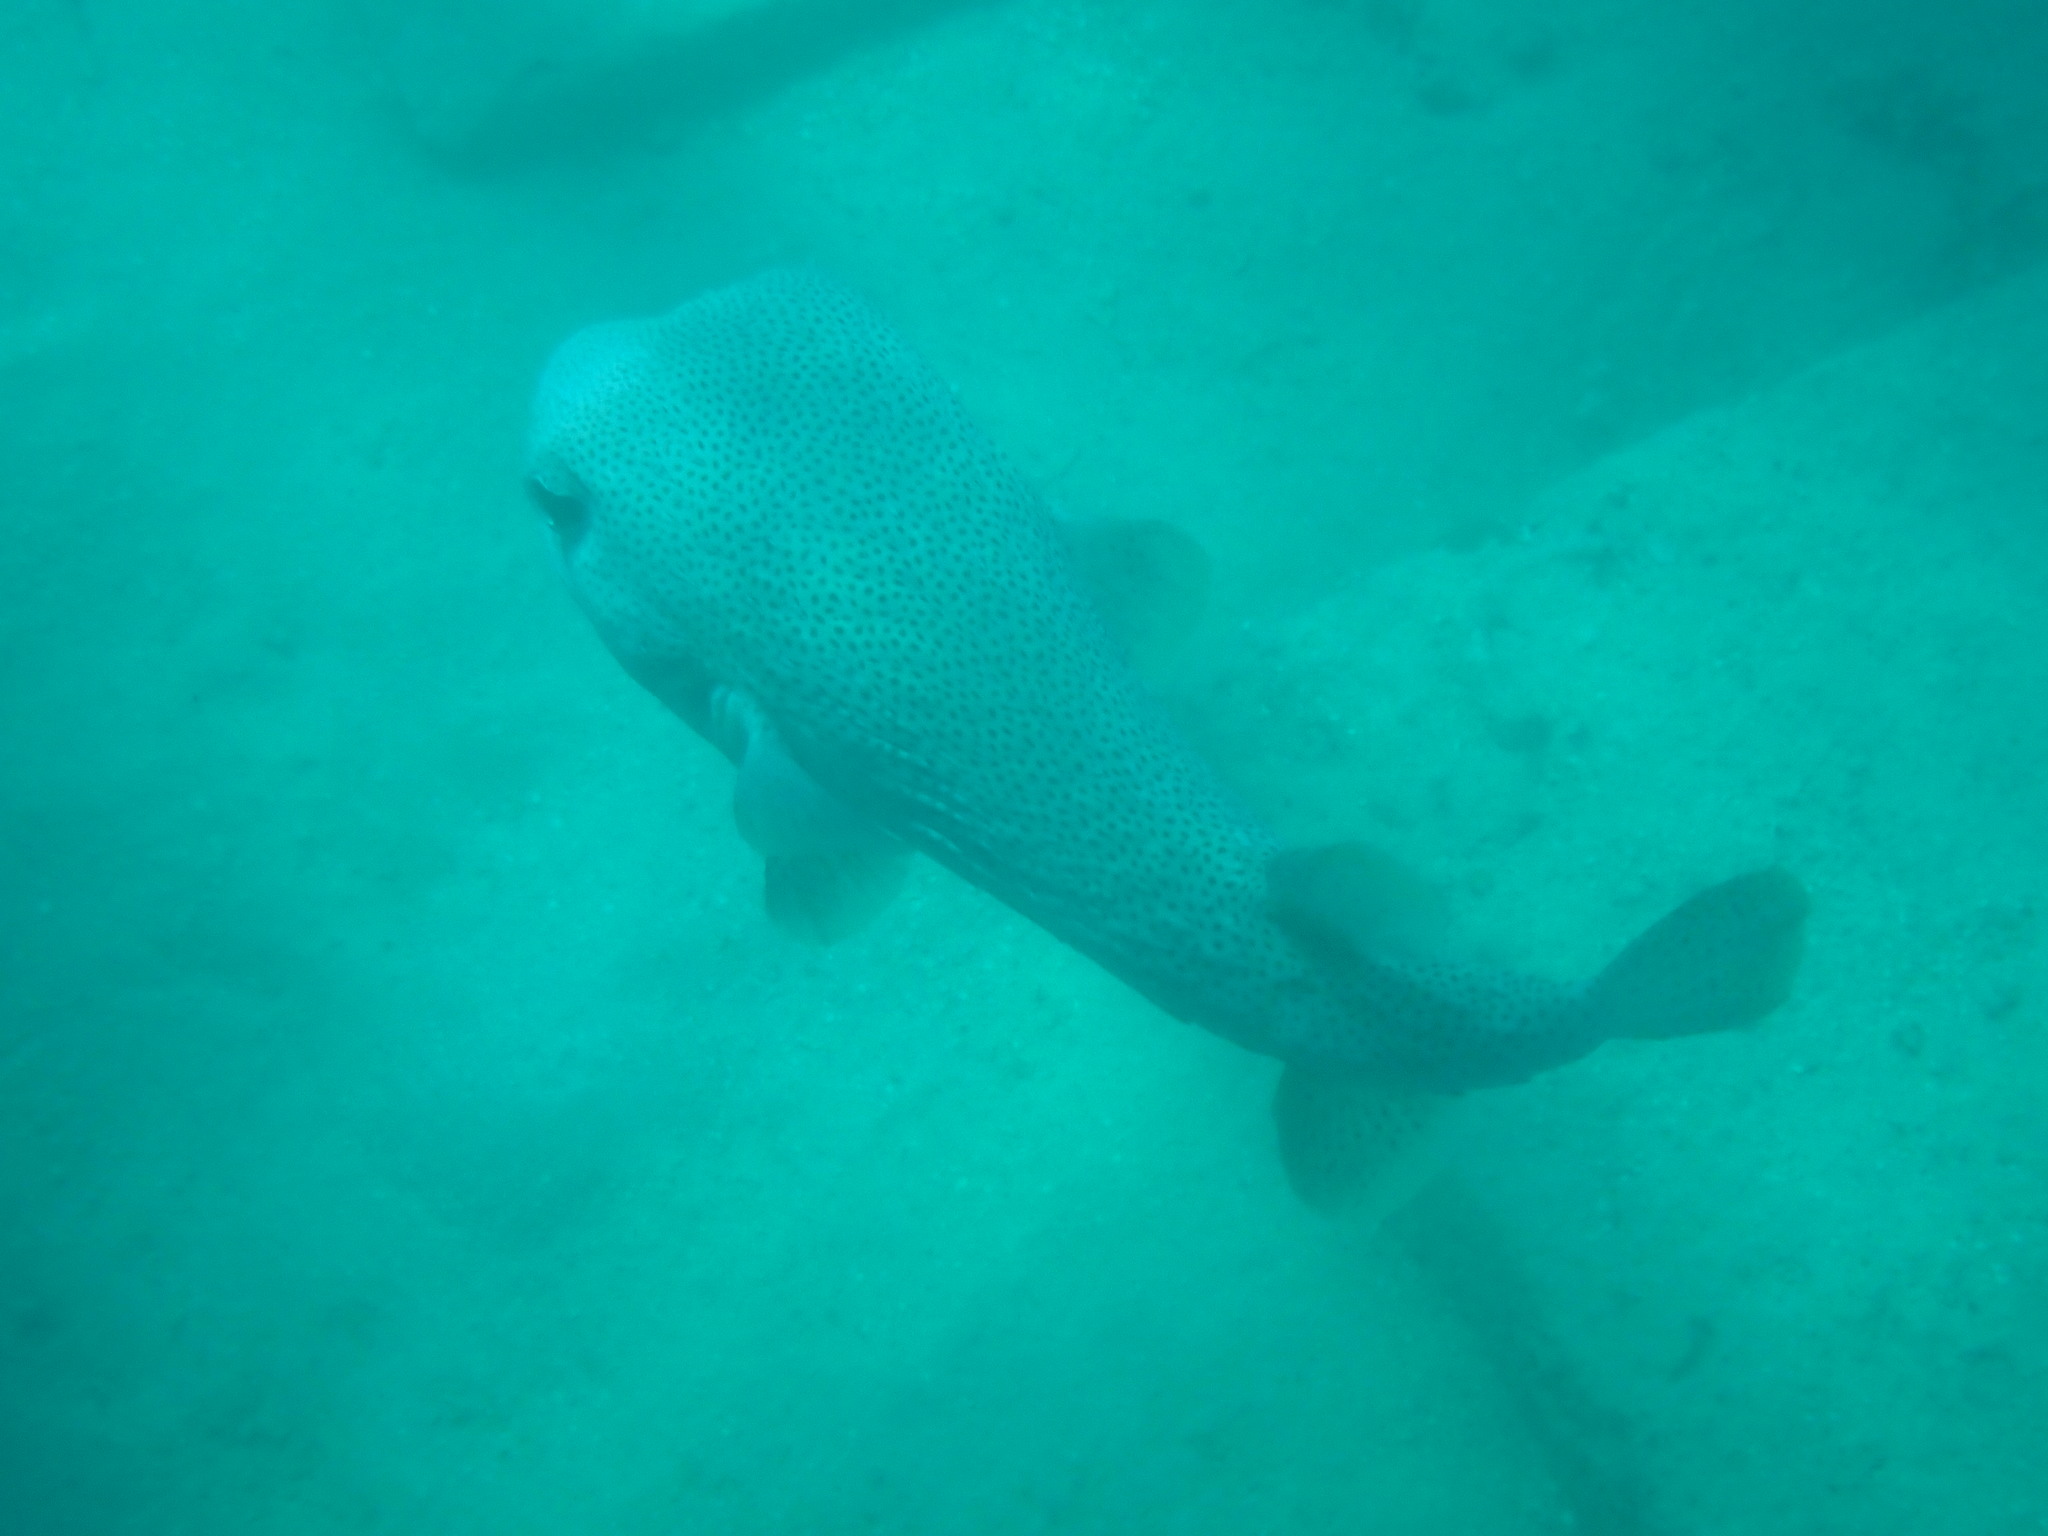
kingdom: Animalia
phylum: Chordata
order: Tetraodontiformes
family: Diodontidae
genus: Diodon
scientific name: Diodon hystrix
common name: Giant porcupinefish
